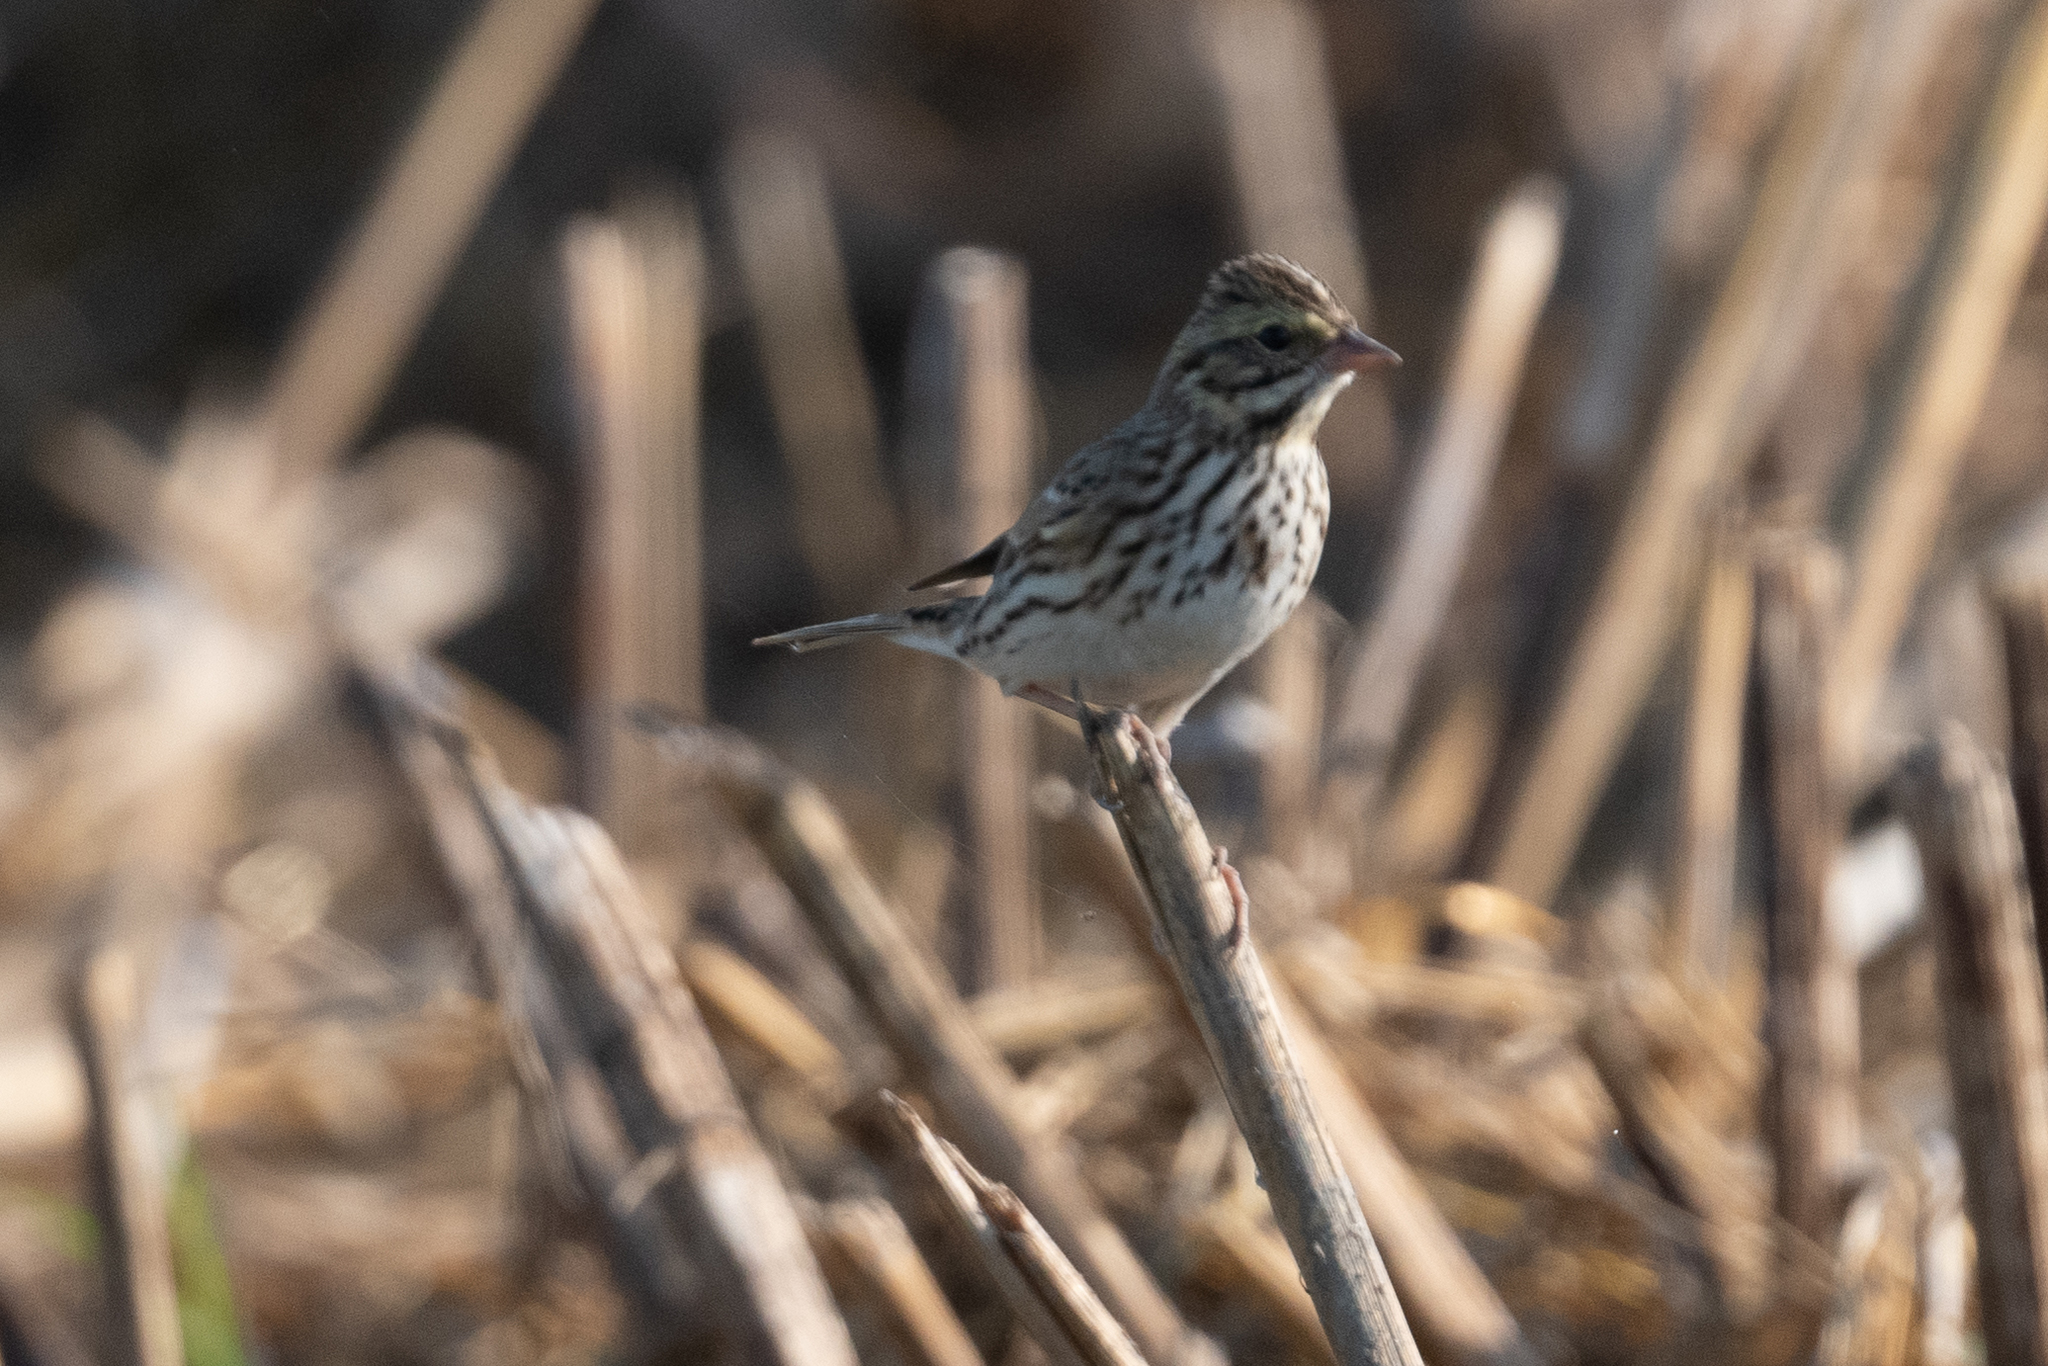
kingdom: Animalia
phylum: Chordata
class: Aves
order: Passeriformes
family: Passerellidae
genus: Passerculus
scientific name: Passerculus sandwichensis
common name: Savannah sparrow
